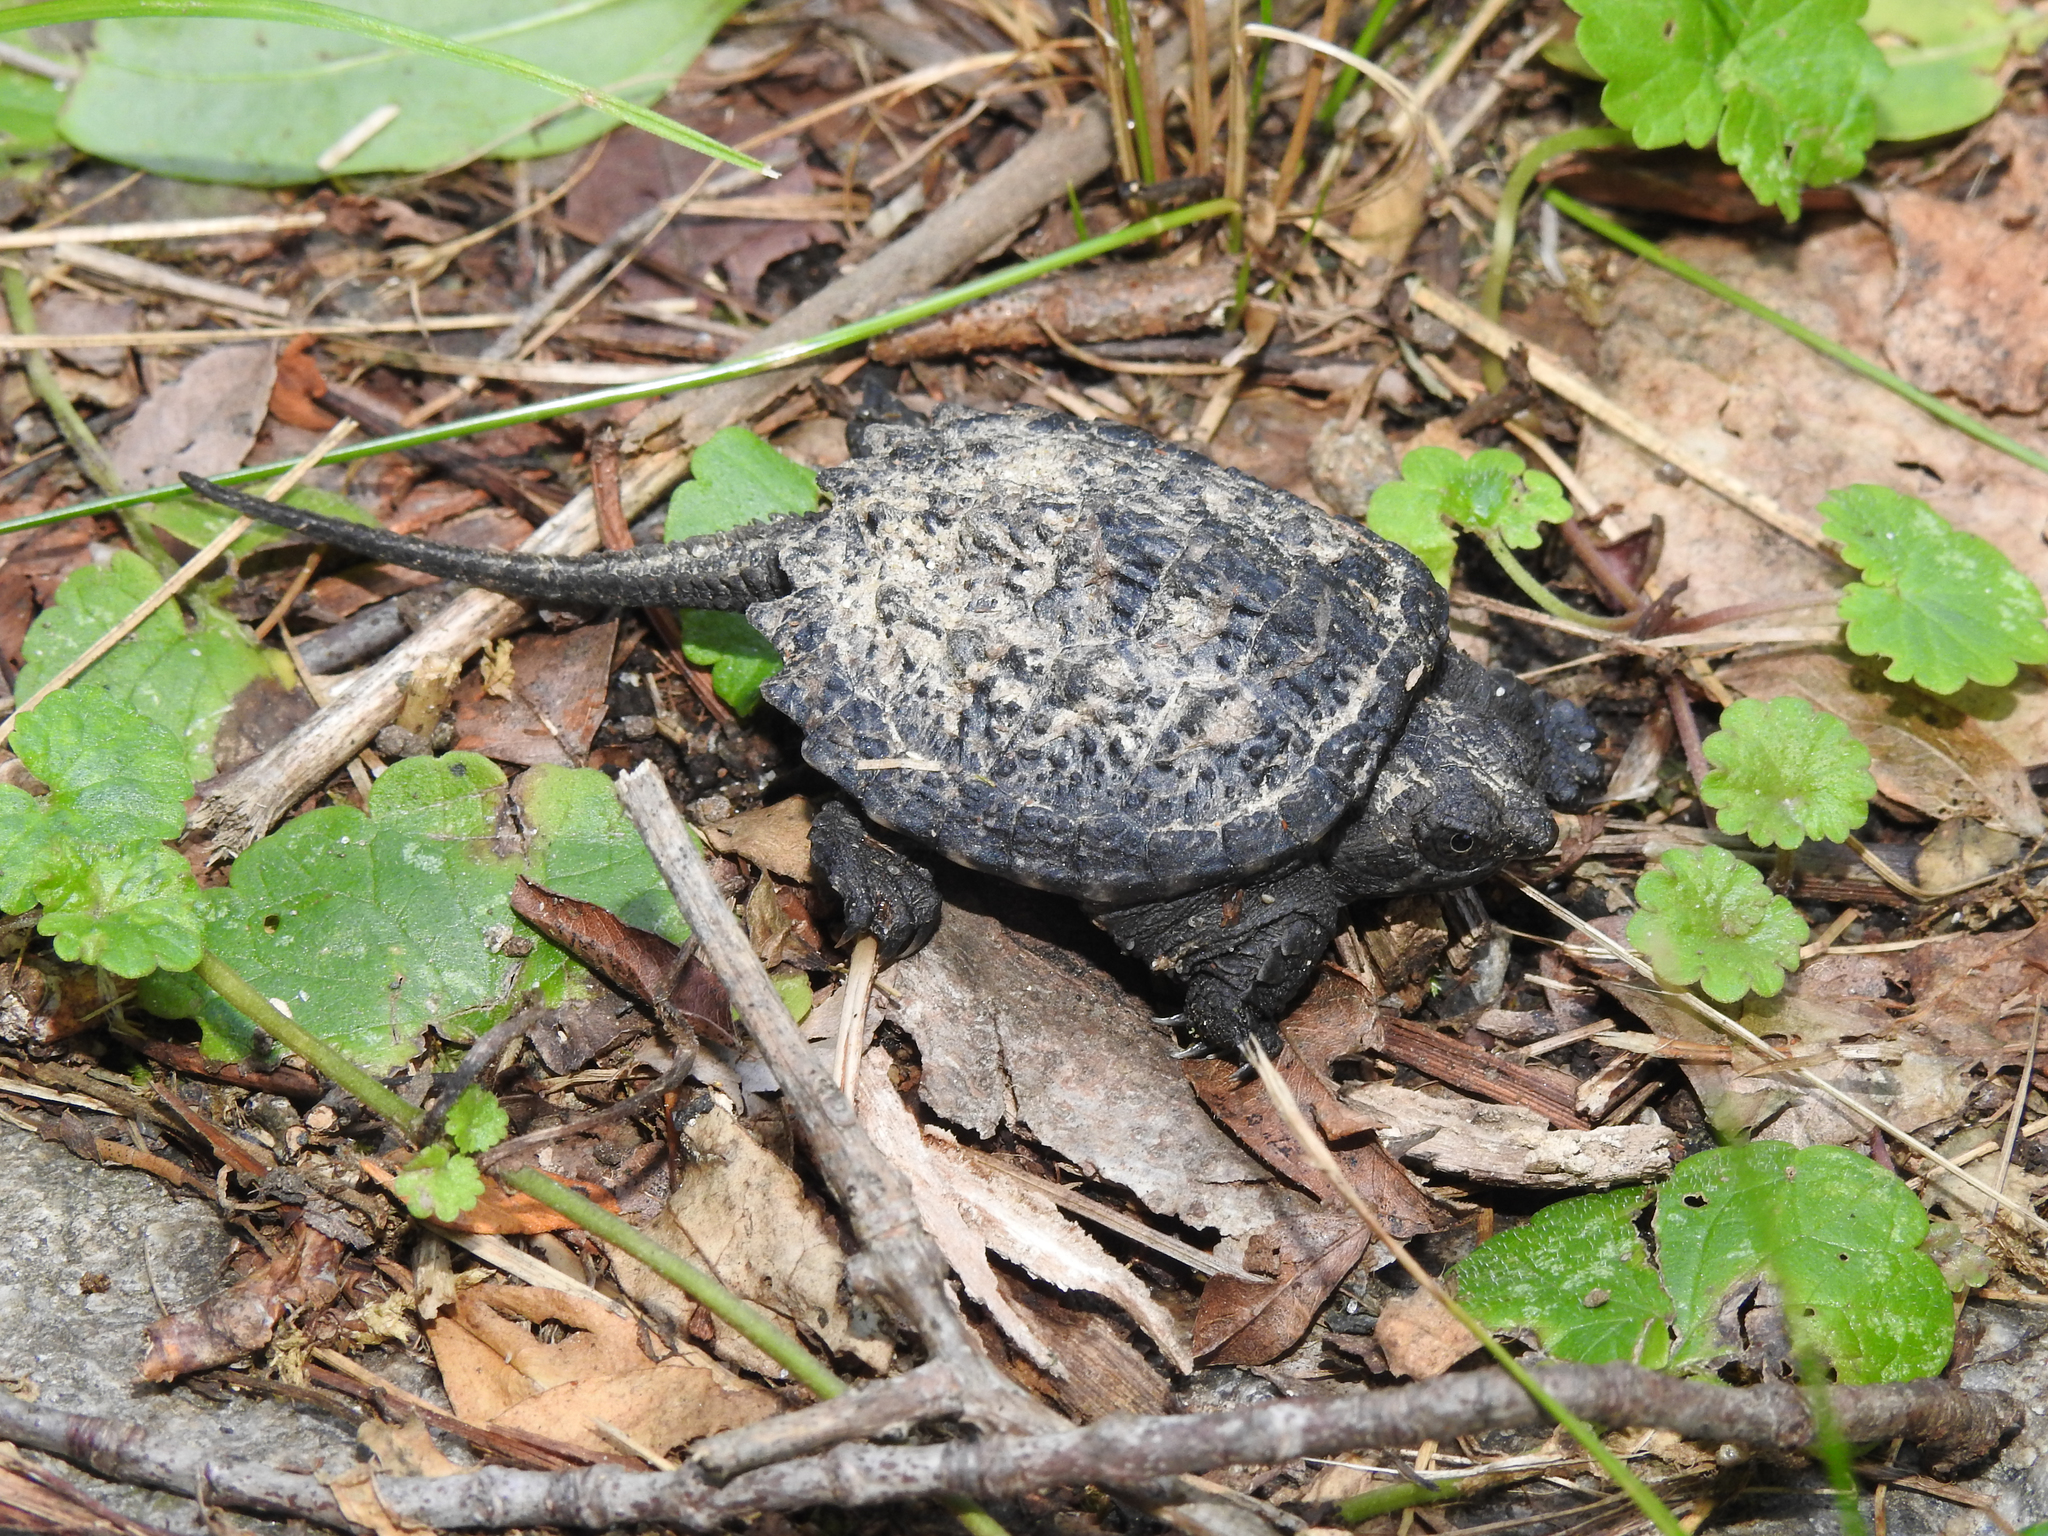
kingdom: Animalia
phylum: Chordata
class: Testudines
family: Chelydridae
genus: Chelydra
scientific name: Chelydra serpentina
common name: Common snapping turtle
